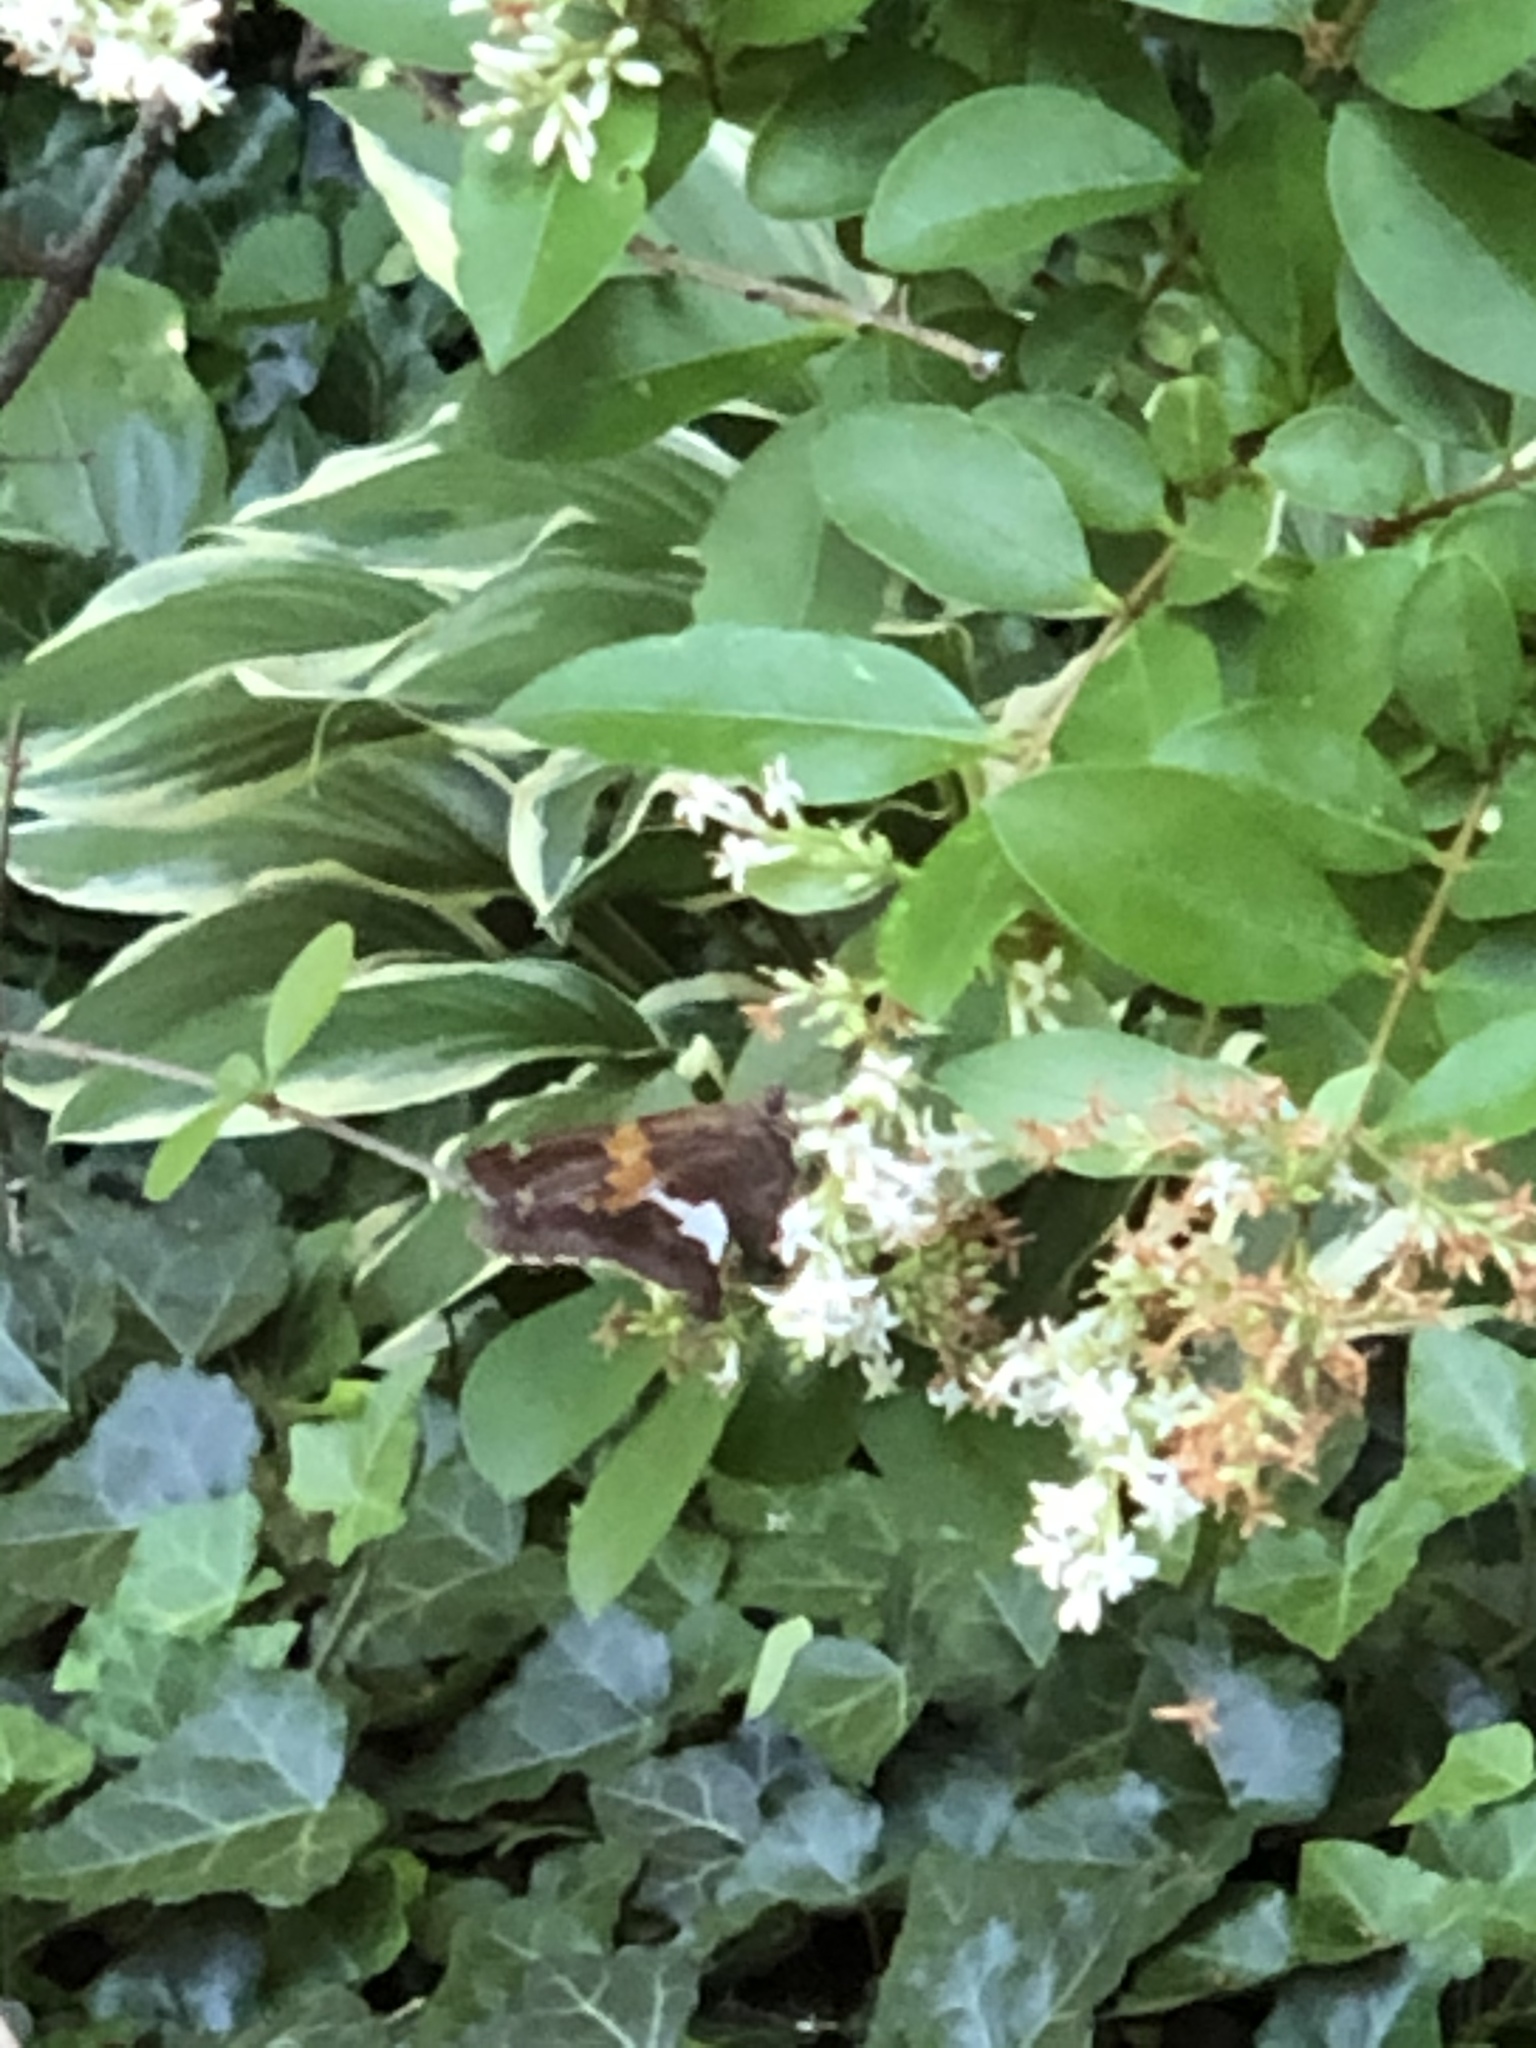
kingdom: Animalia
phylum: Arthropoda
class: Insecta
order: Lepidoptera
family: Hesperiidae
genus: Epargyreus
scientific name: Epargyreus clarus
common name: Silver-spotted skipper
